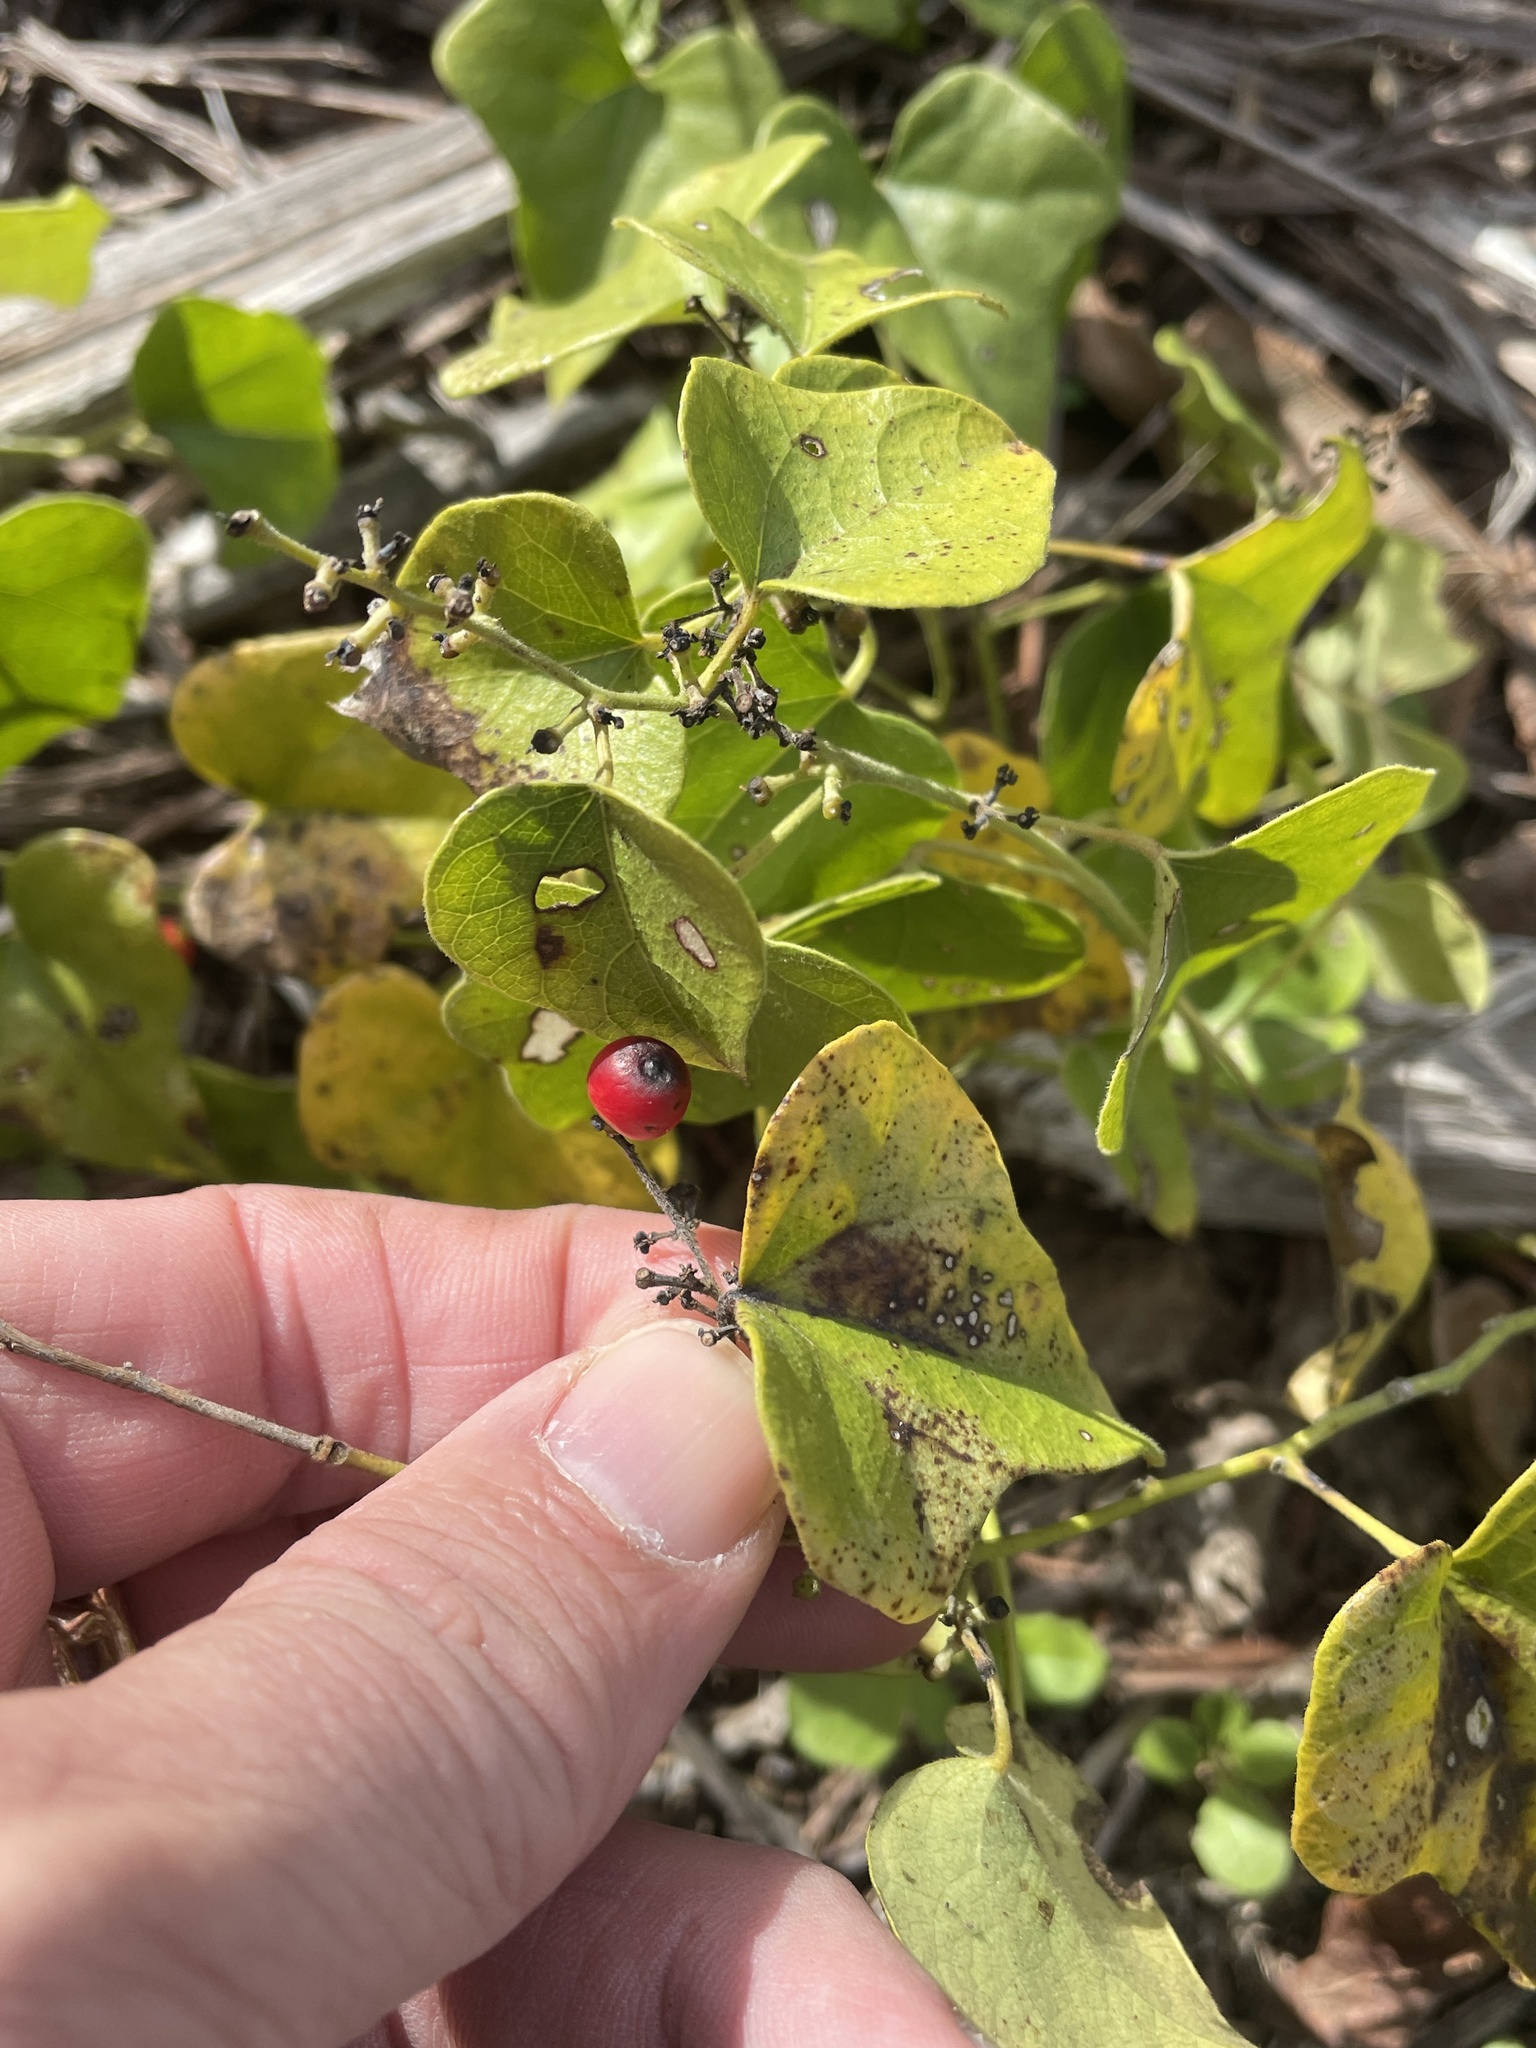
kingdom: Plantae
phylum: Tracheophyta
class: Magnoliopsida
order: Ranunculales
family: Menispermaceae
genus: Cocculus
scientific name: Cocculus carolinus
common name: Carolina moonseed
